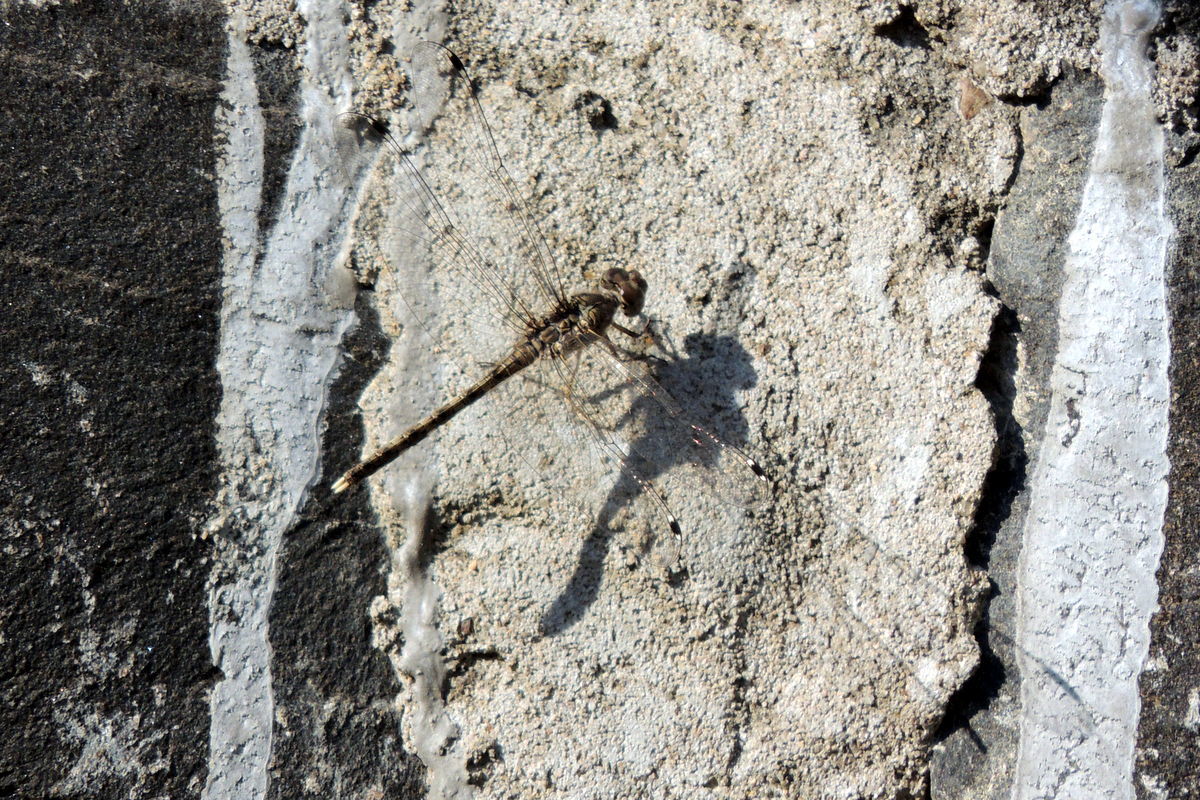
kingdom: Animalia
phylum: Arthropoda
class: Insecta
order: Odonata
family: Libellulidae
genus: Bradinopyga
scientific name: Bradinopyga geminata
